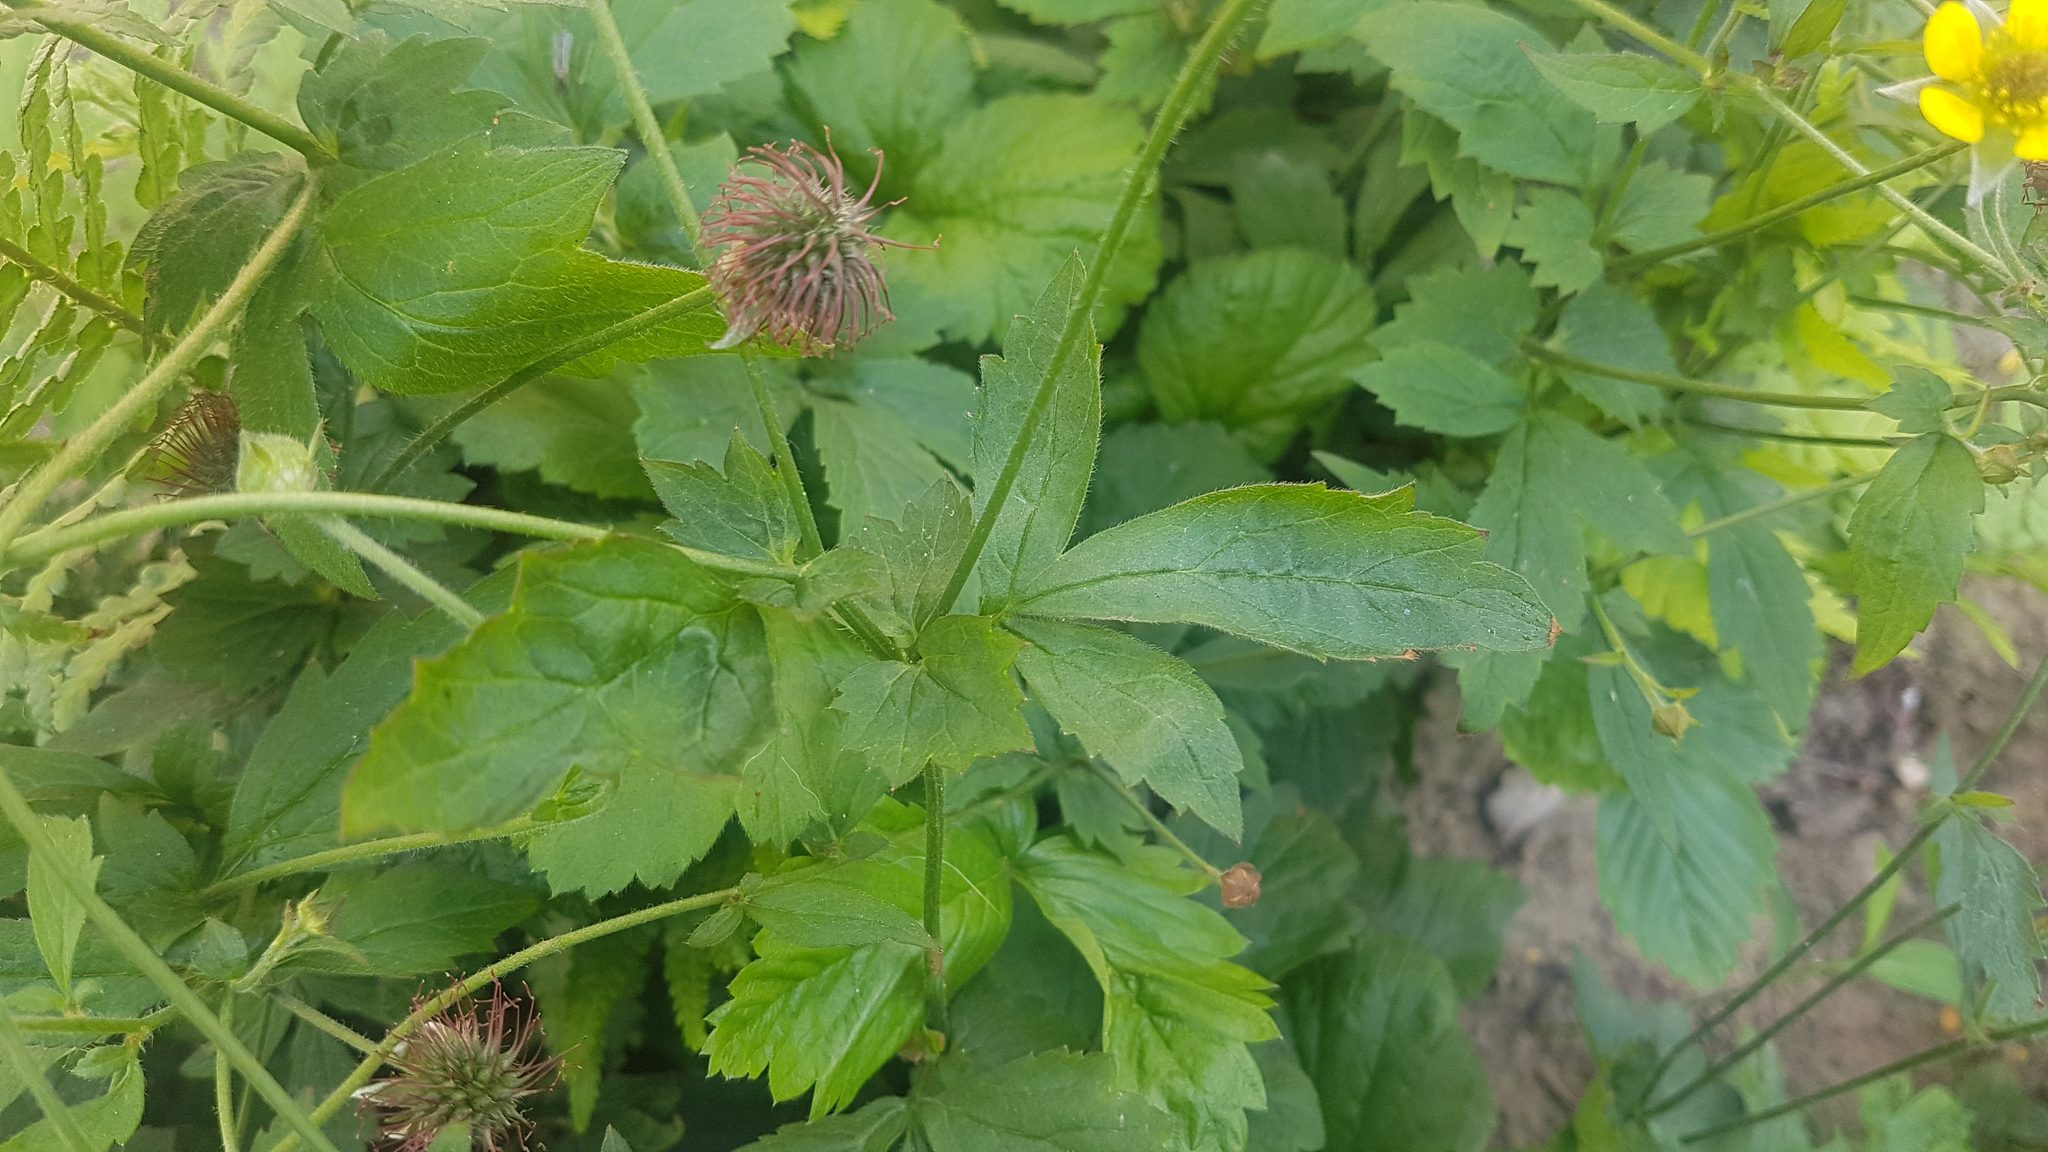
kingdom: Plantae
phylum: Tracheophyta
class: Magnoliopsida
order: Rosales
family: Rosaceae
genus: Geum
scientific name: Geum urbanum
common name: Wood avens
